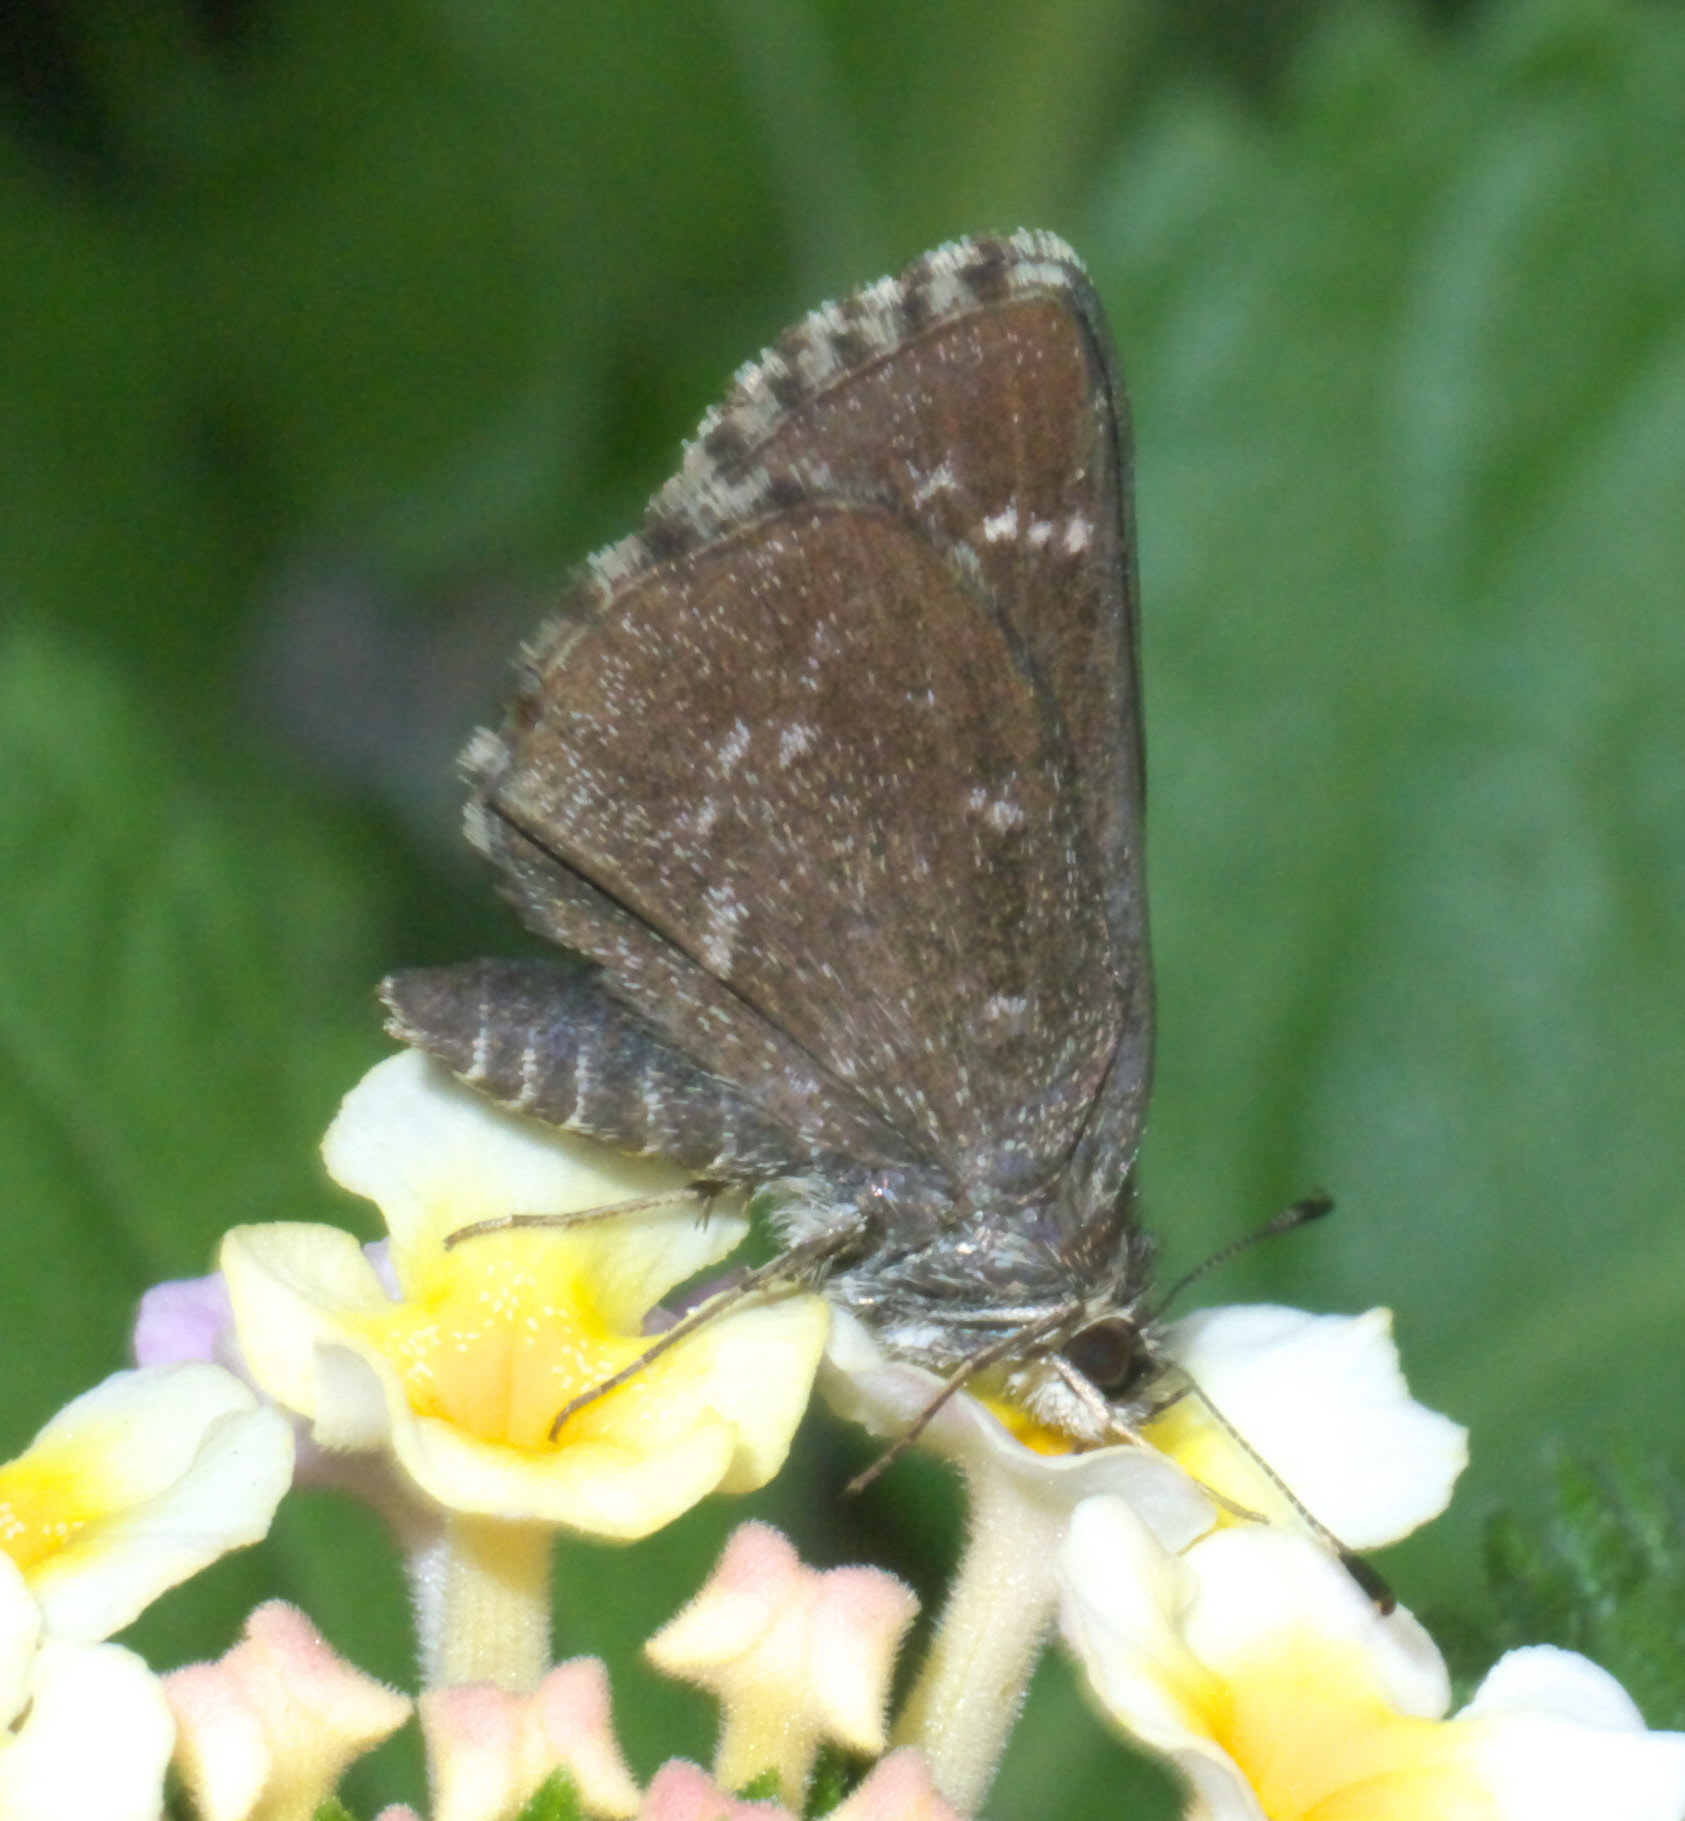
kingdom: Animalia
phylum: Arthropoda
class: Insecta
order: Lepidoptera
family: Hesperiidae
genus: Mastor
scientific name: Mastor celia
